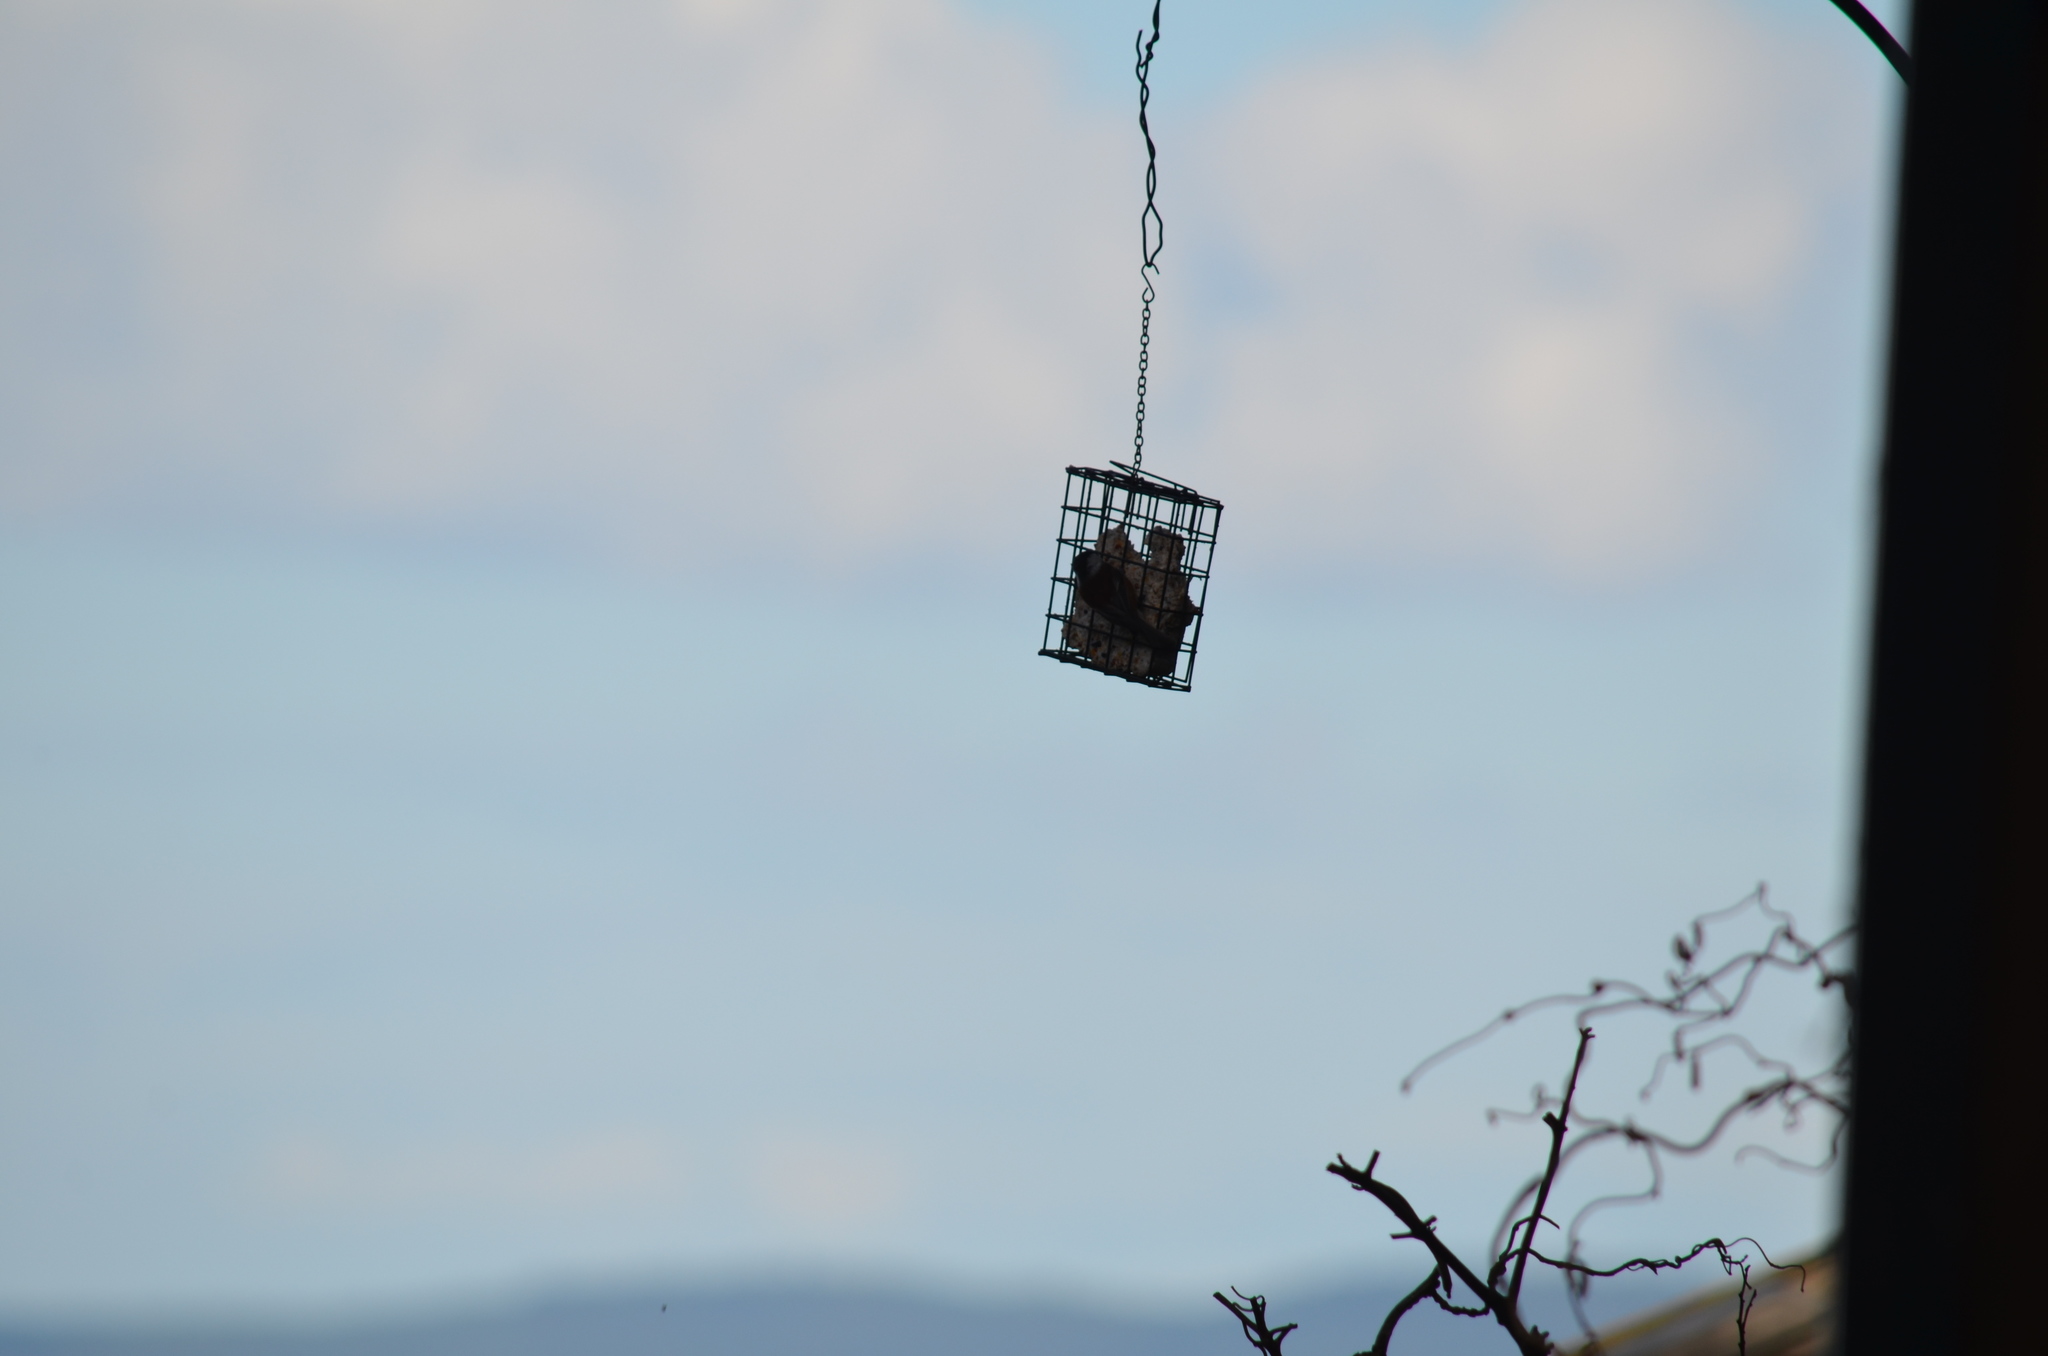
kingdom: Animalia
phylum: Chordata
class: Aves
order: Passeriformes
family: Paridae
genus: Poecile
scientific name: Poecile rufescens
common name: Chestnut-backed chickadee
